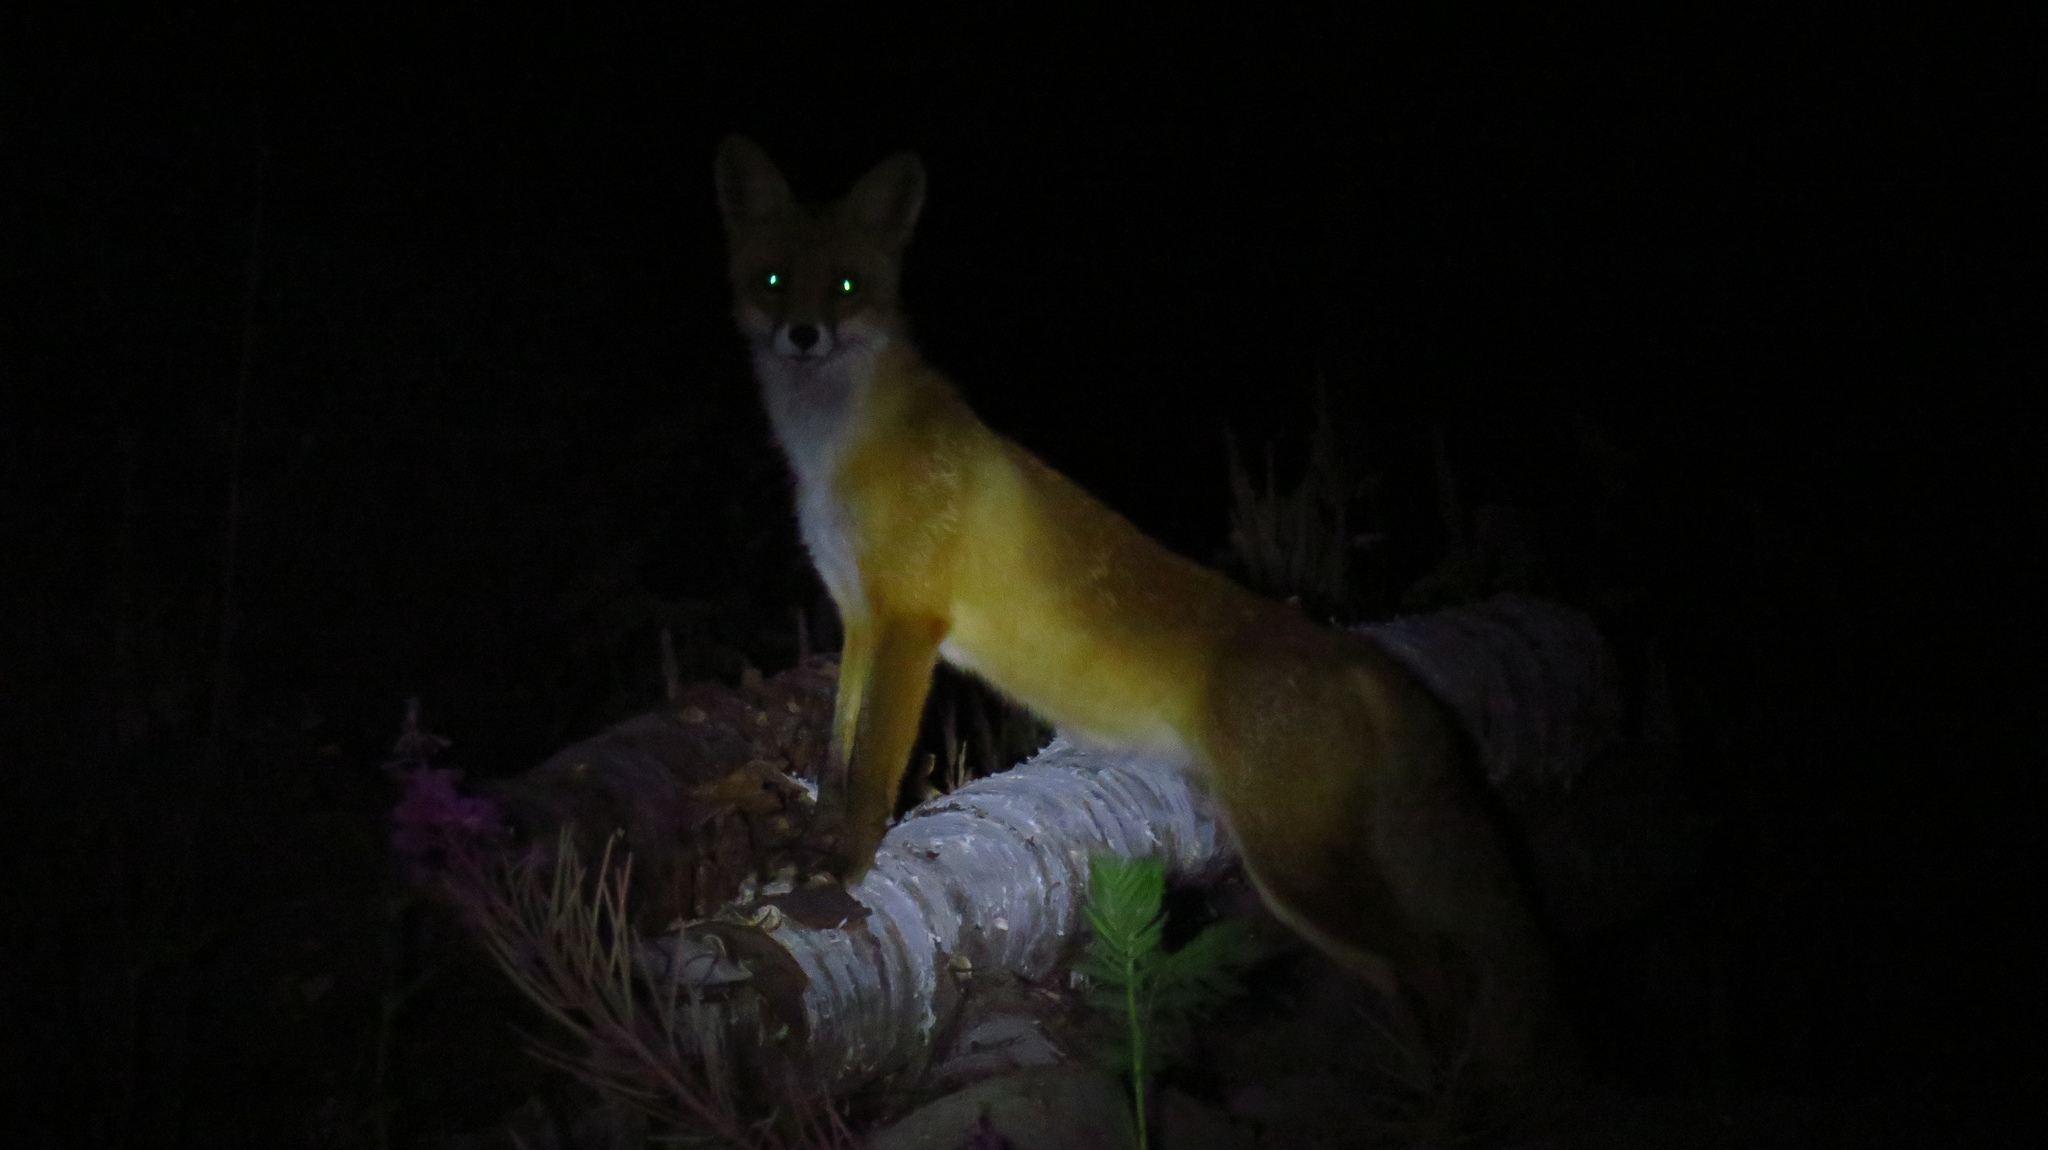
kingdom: Animalia
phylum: Chordata
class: Mammalia
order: Carnivora
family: Canidae
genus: Vulpes
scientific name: Vulpes vulpes
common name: Red fox
